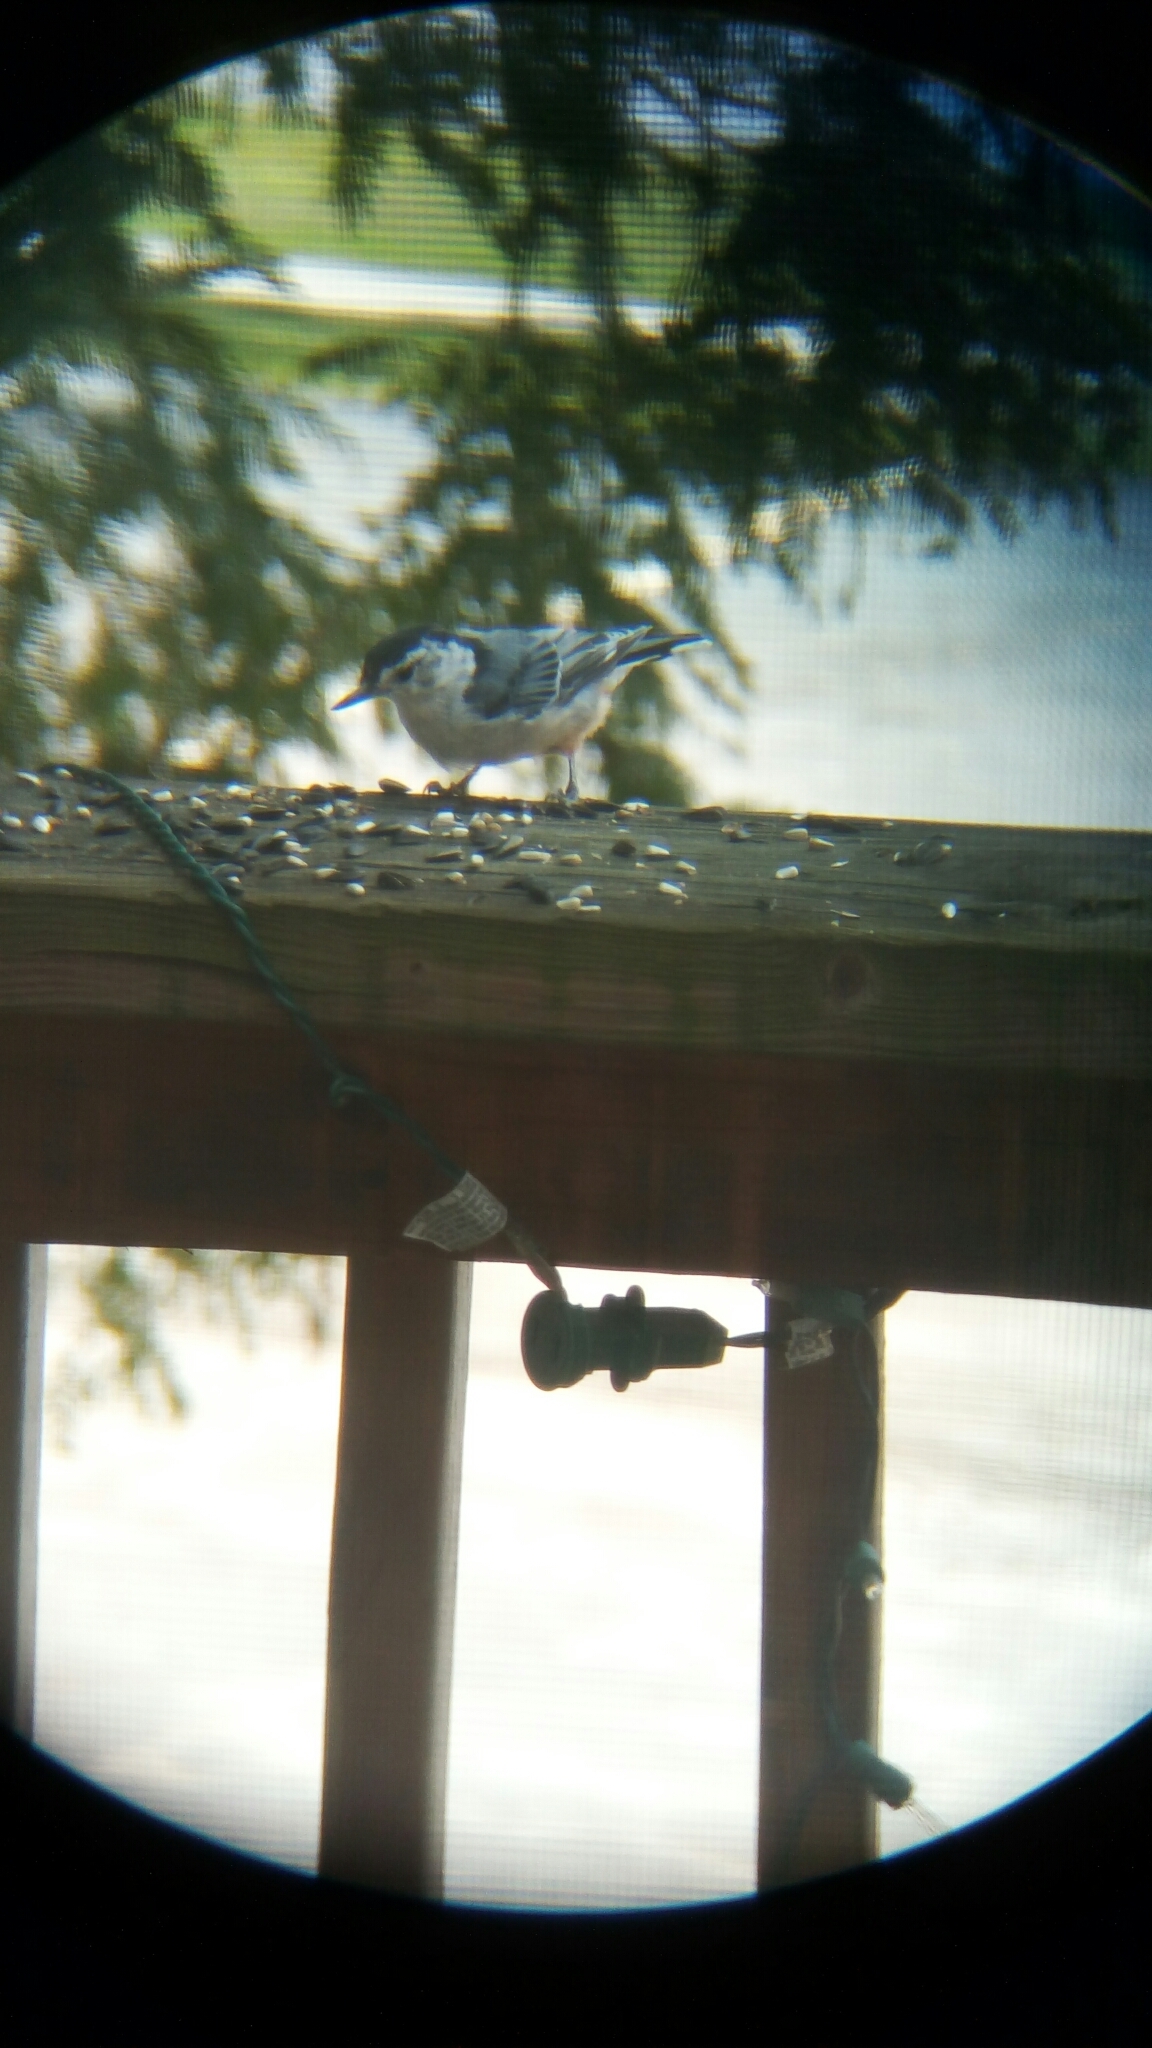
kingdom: Animalia
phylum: Chordata
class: Aves
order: Passeriformes
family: Sittidae
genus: Sitta
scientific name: Sitta carolinensis
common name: White-breasted nuthatch
